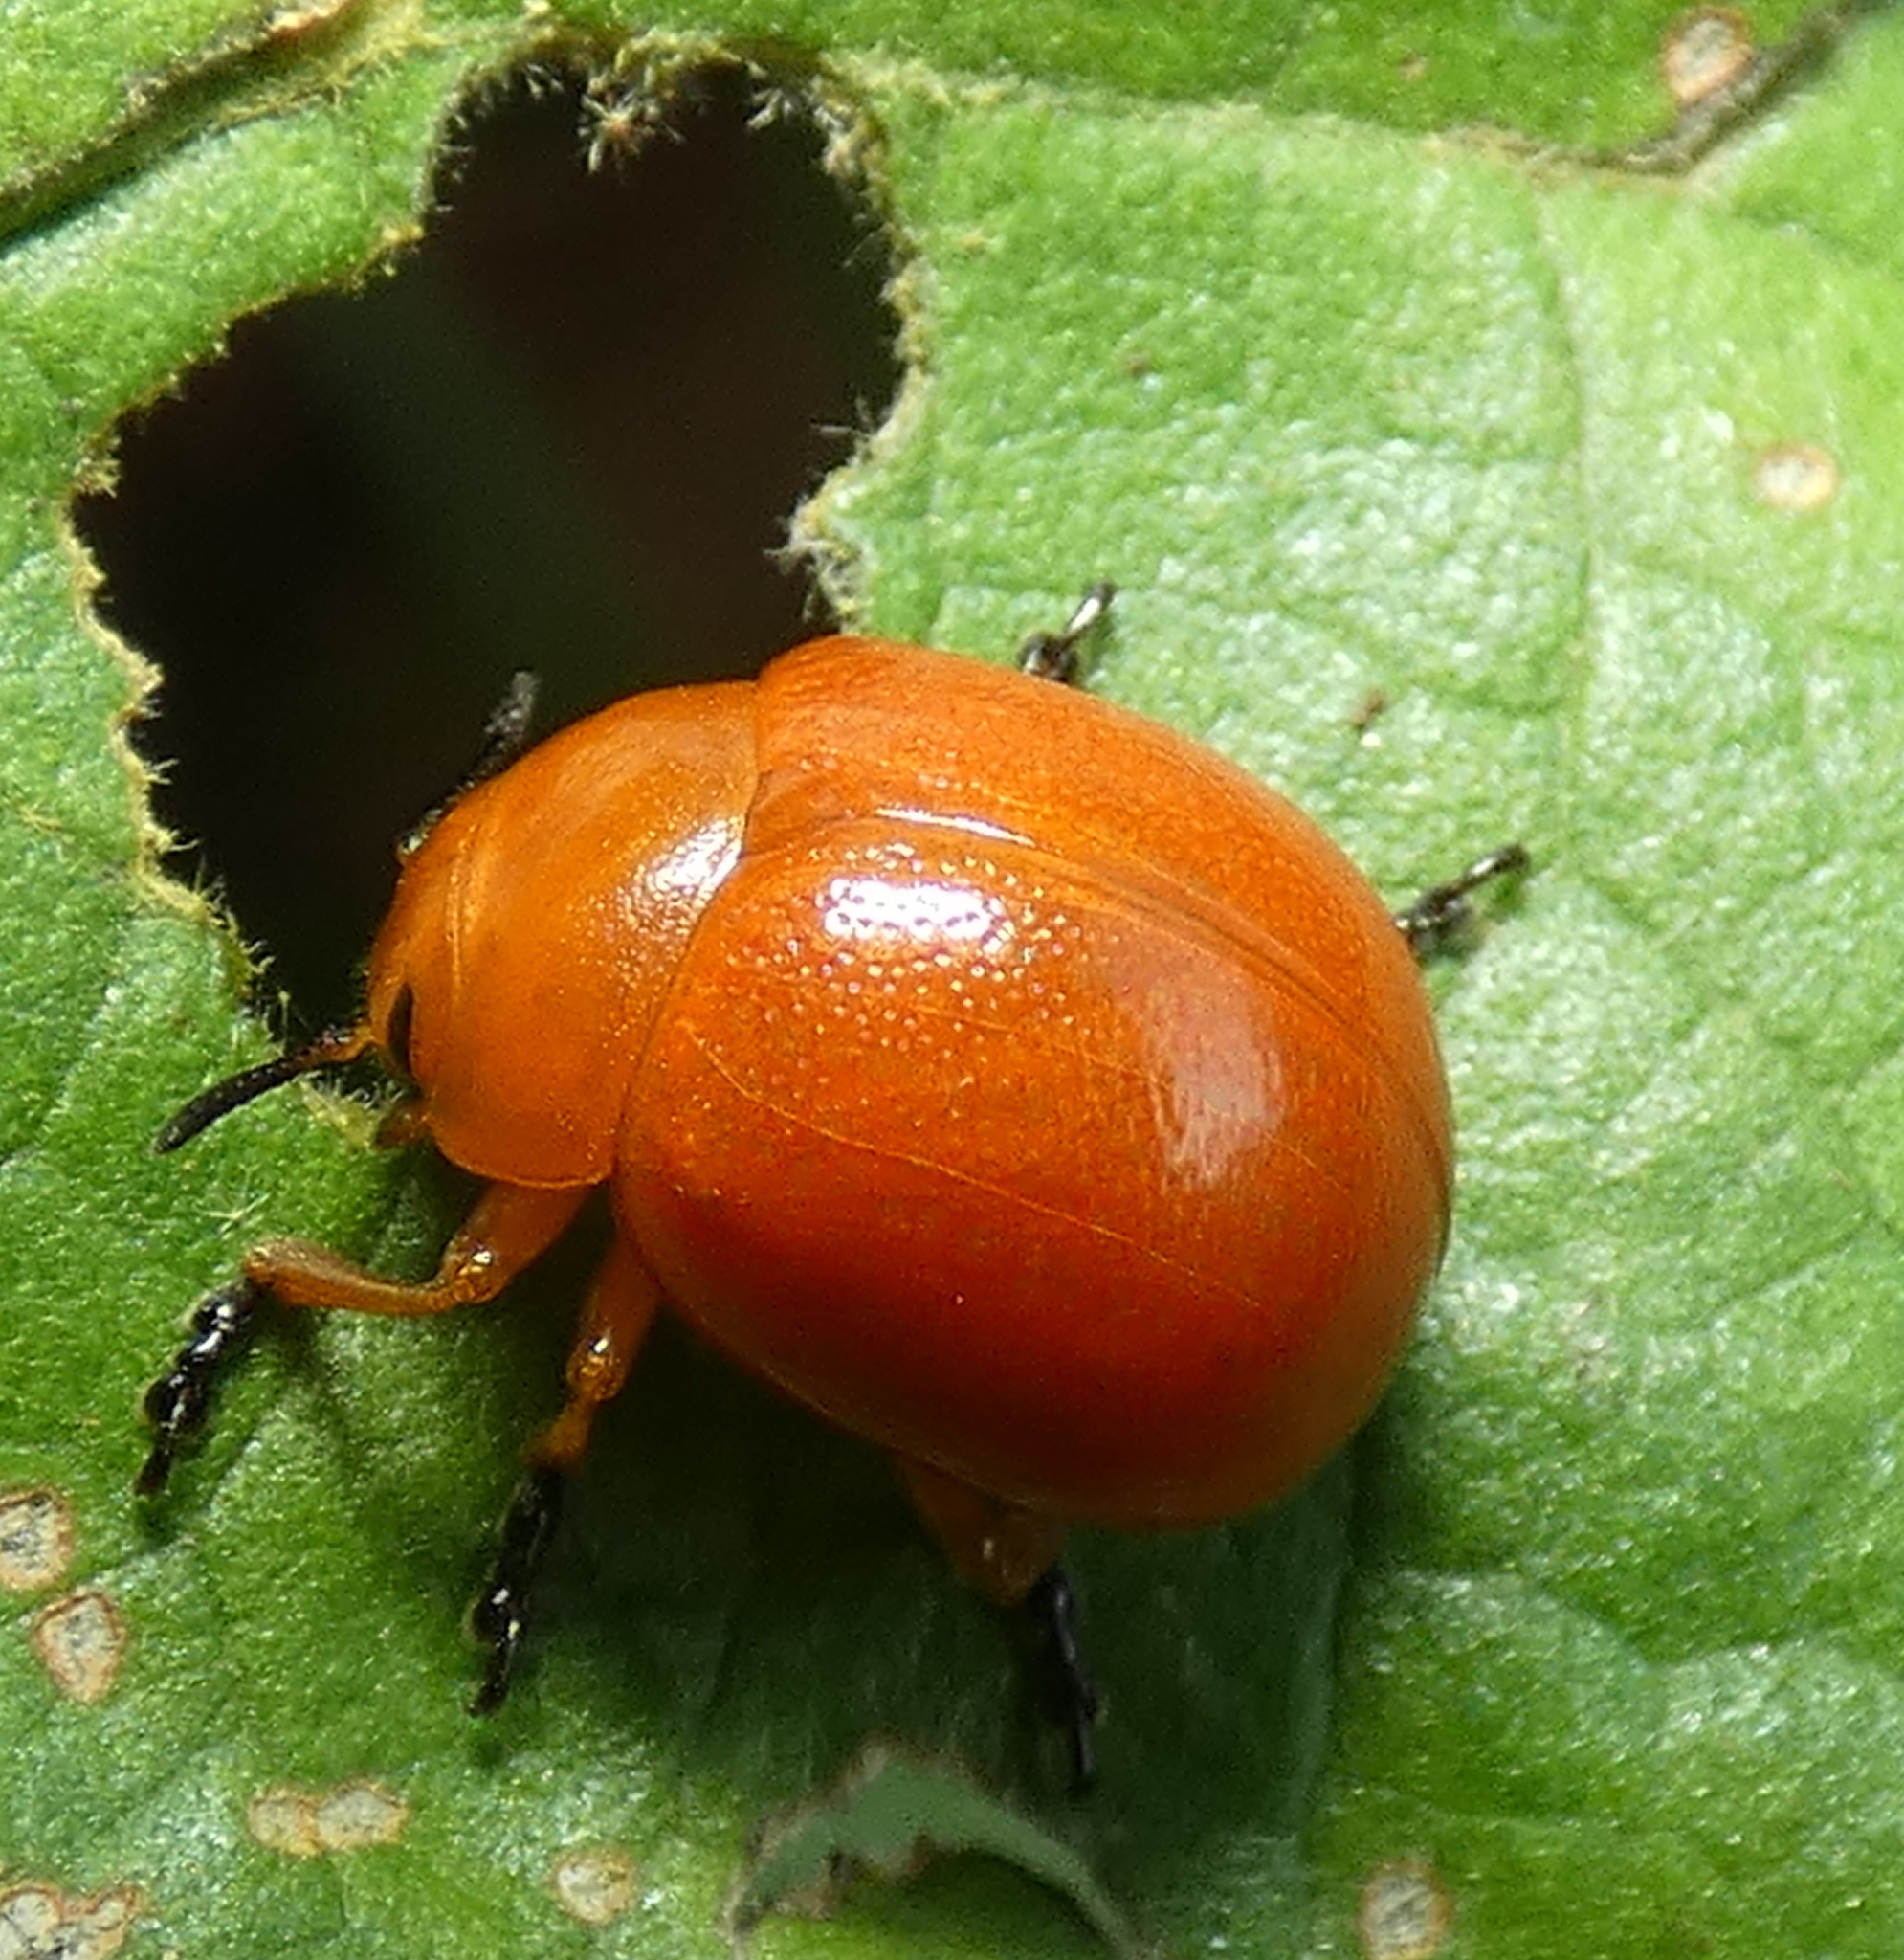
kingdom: Animalia
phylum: Arthropoda
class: Insecta
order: Coleoptera
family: Chrysomelidae
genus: Eugonycha
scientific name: Eugonycha
